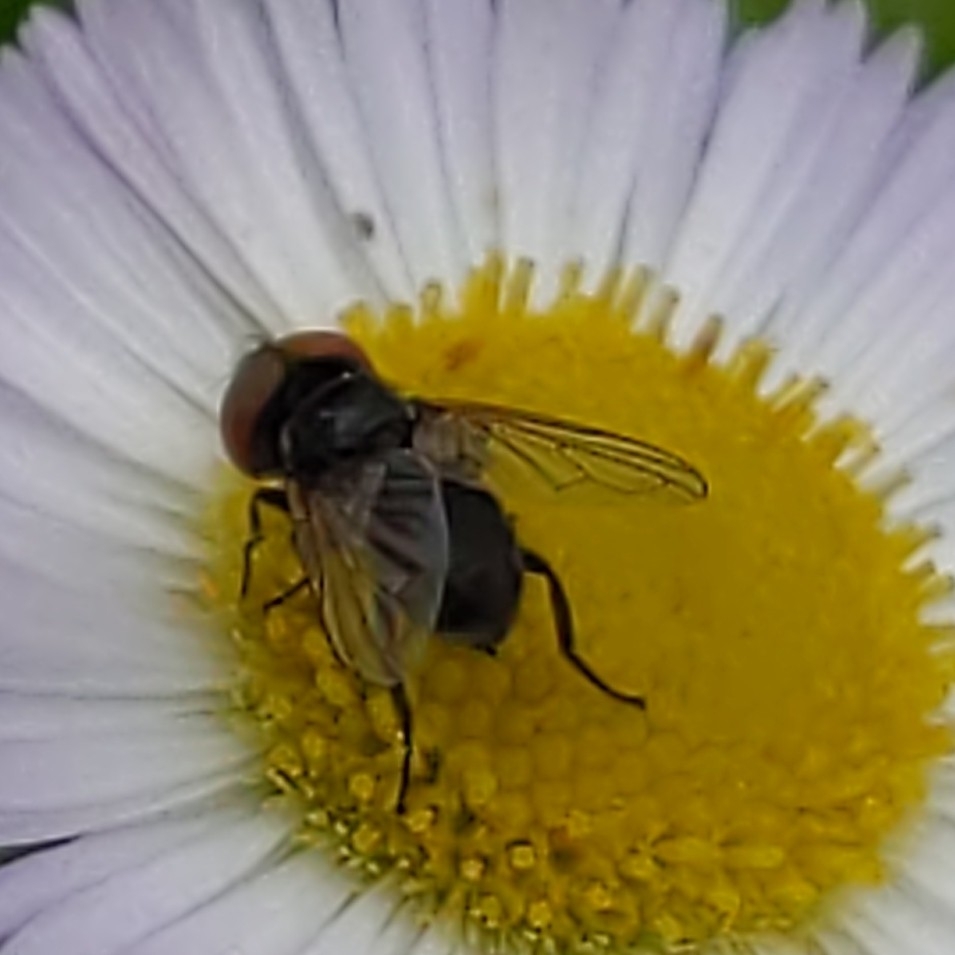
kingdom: Animalia
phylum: Arthropoda
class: Insecta
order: Diptera
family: Tachinidae
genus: Phasia
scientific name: Phasia
